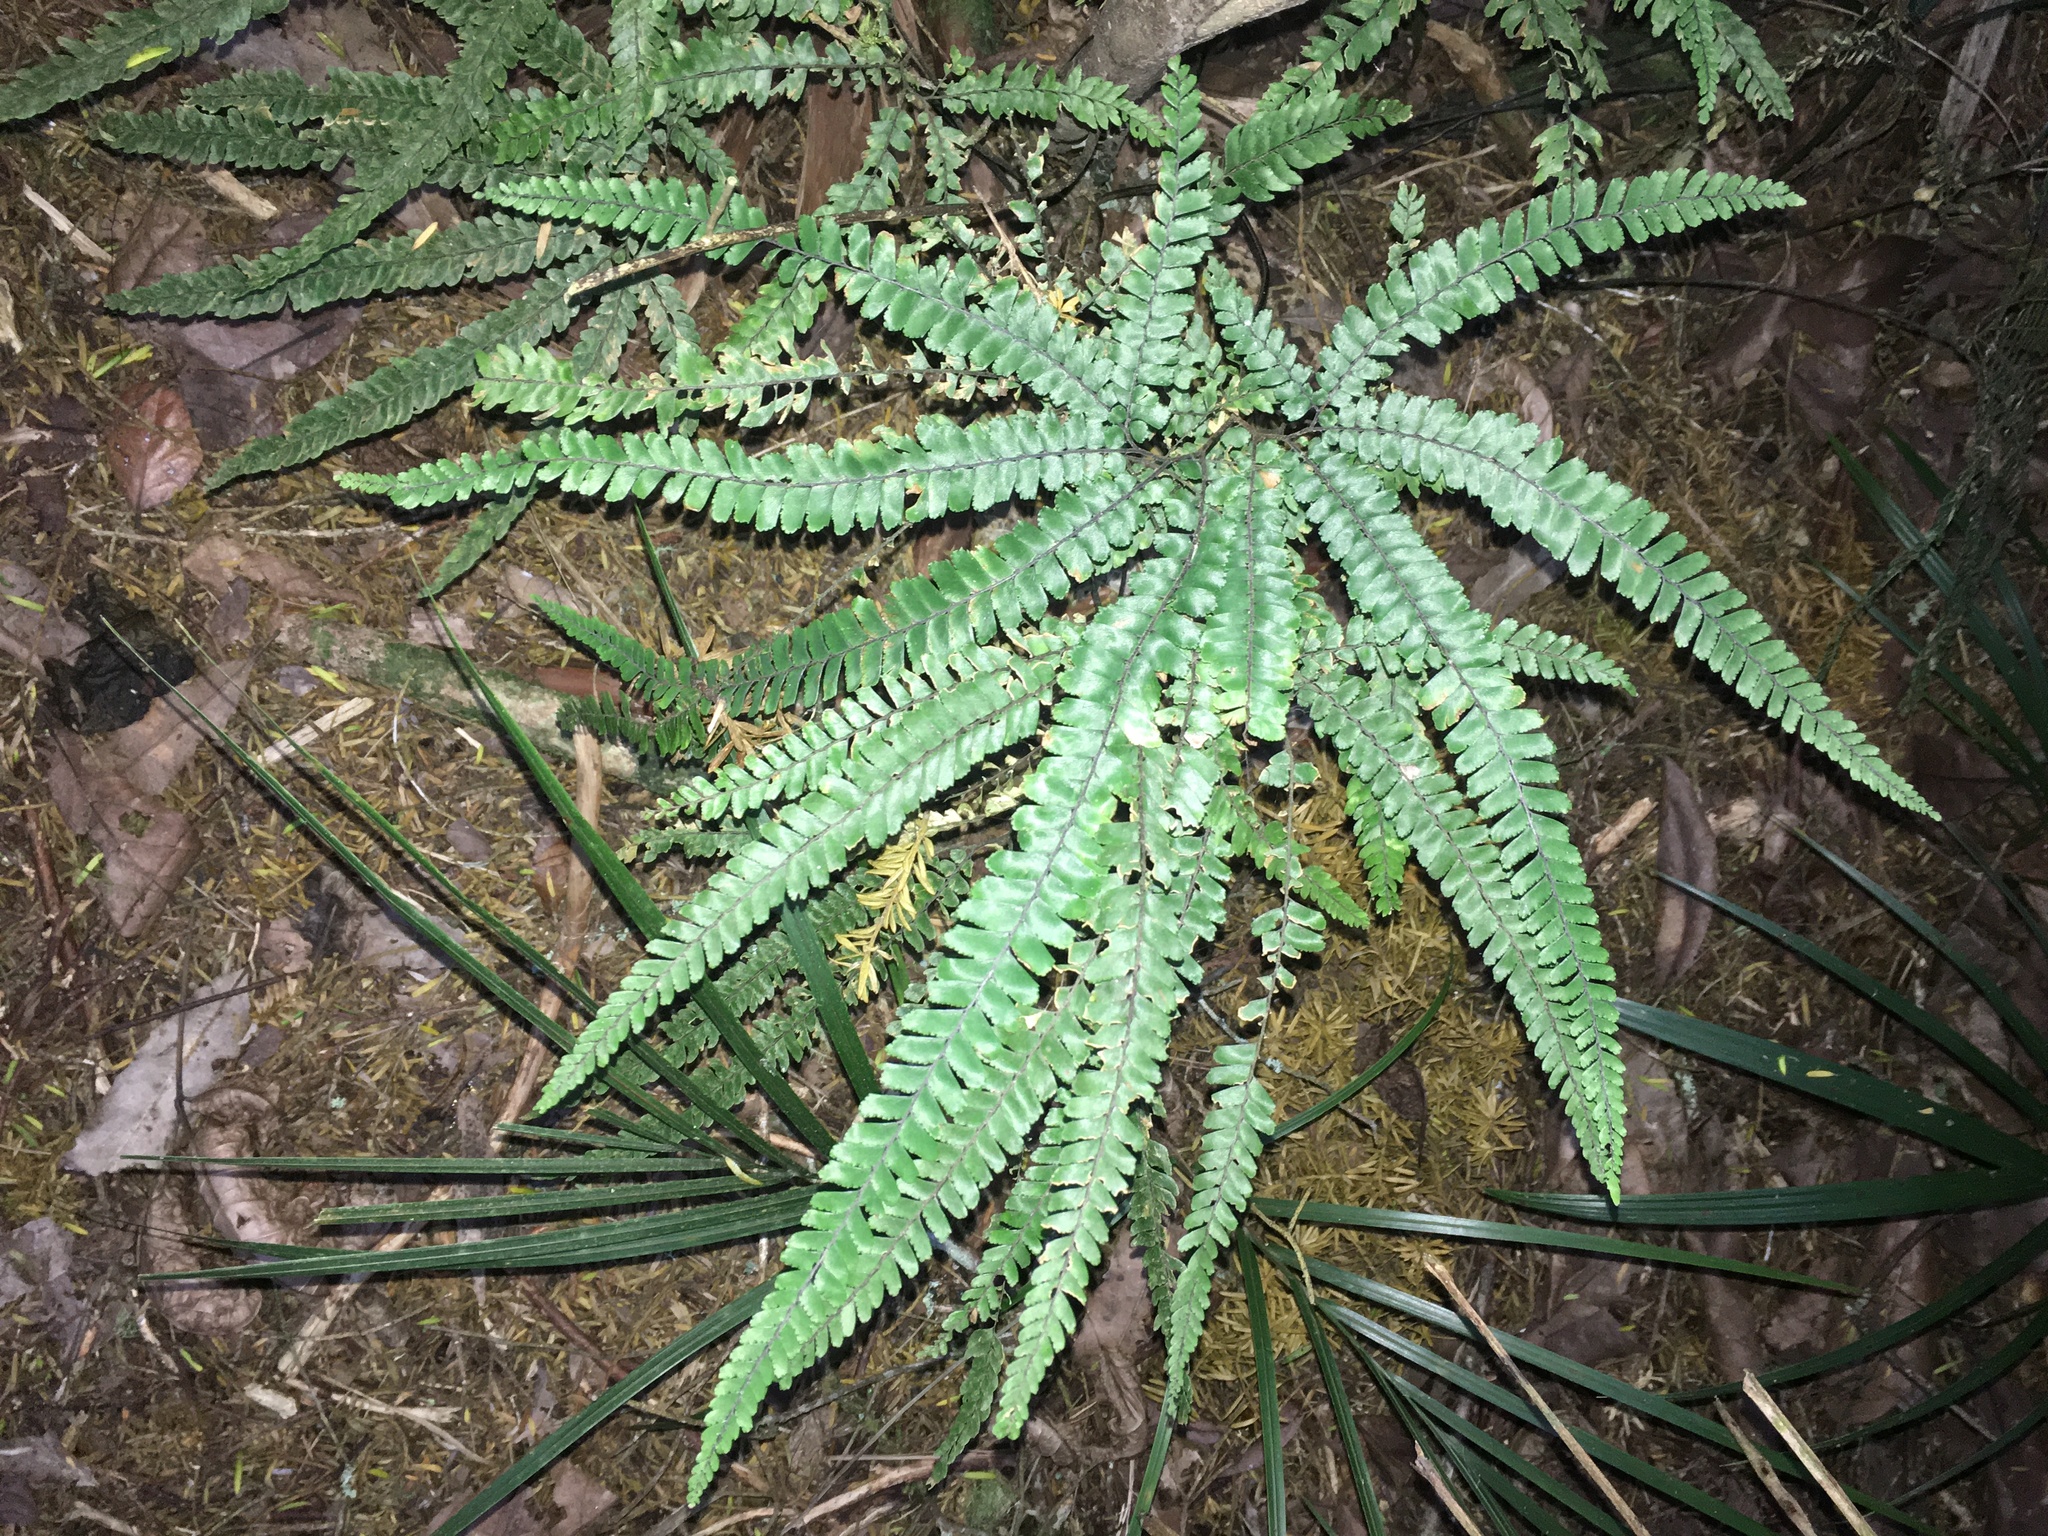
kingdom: Plantae
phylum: Tracheophyta
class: Polypodiopsida
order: Polypodiales
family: Pteridaceae
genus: Adiantum
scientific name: Adiantum hispidulum
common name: Rough maidenhair
